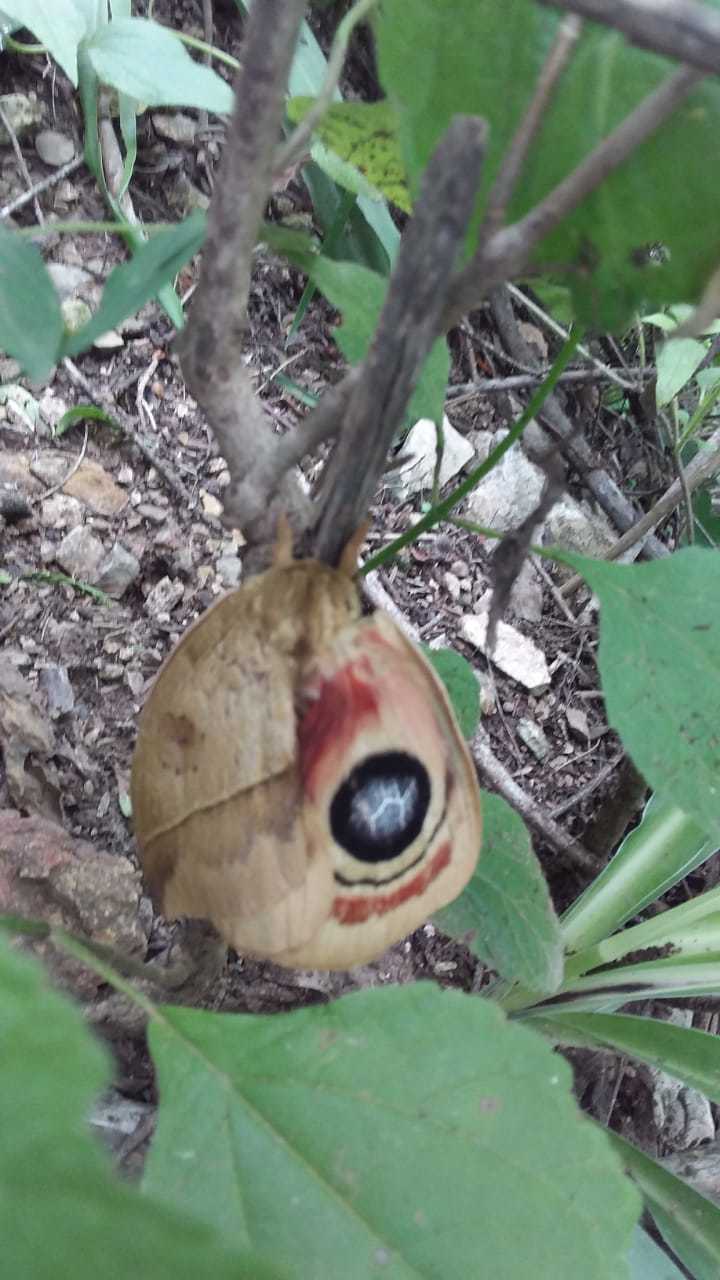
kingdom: Animalia
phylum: Arthropoda
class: Insecta
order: Lepidoptera
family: Saturniidae
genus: Automeris
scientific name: Automeris metzli
